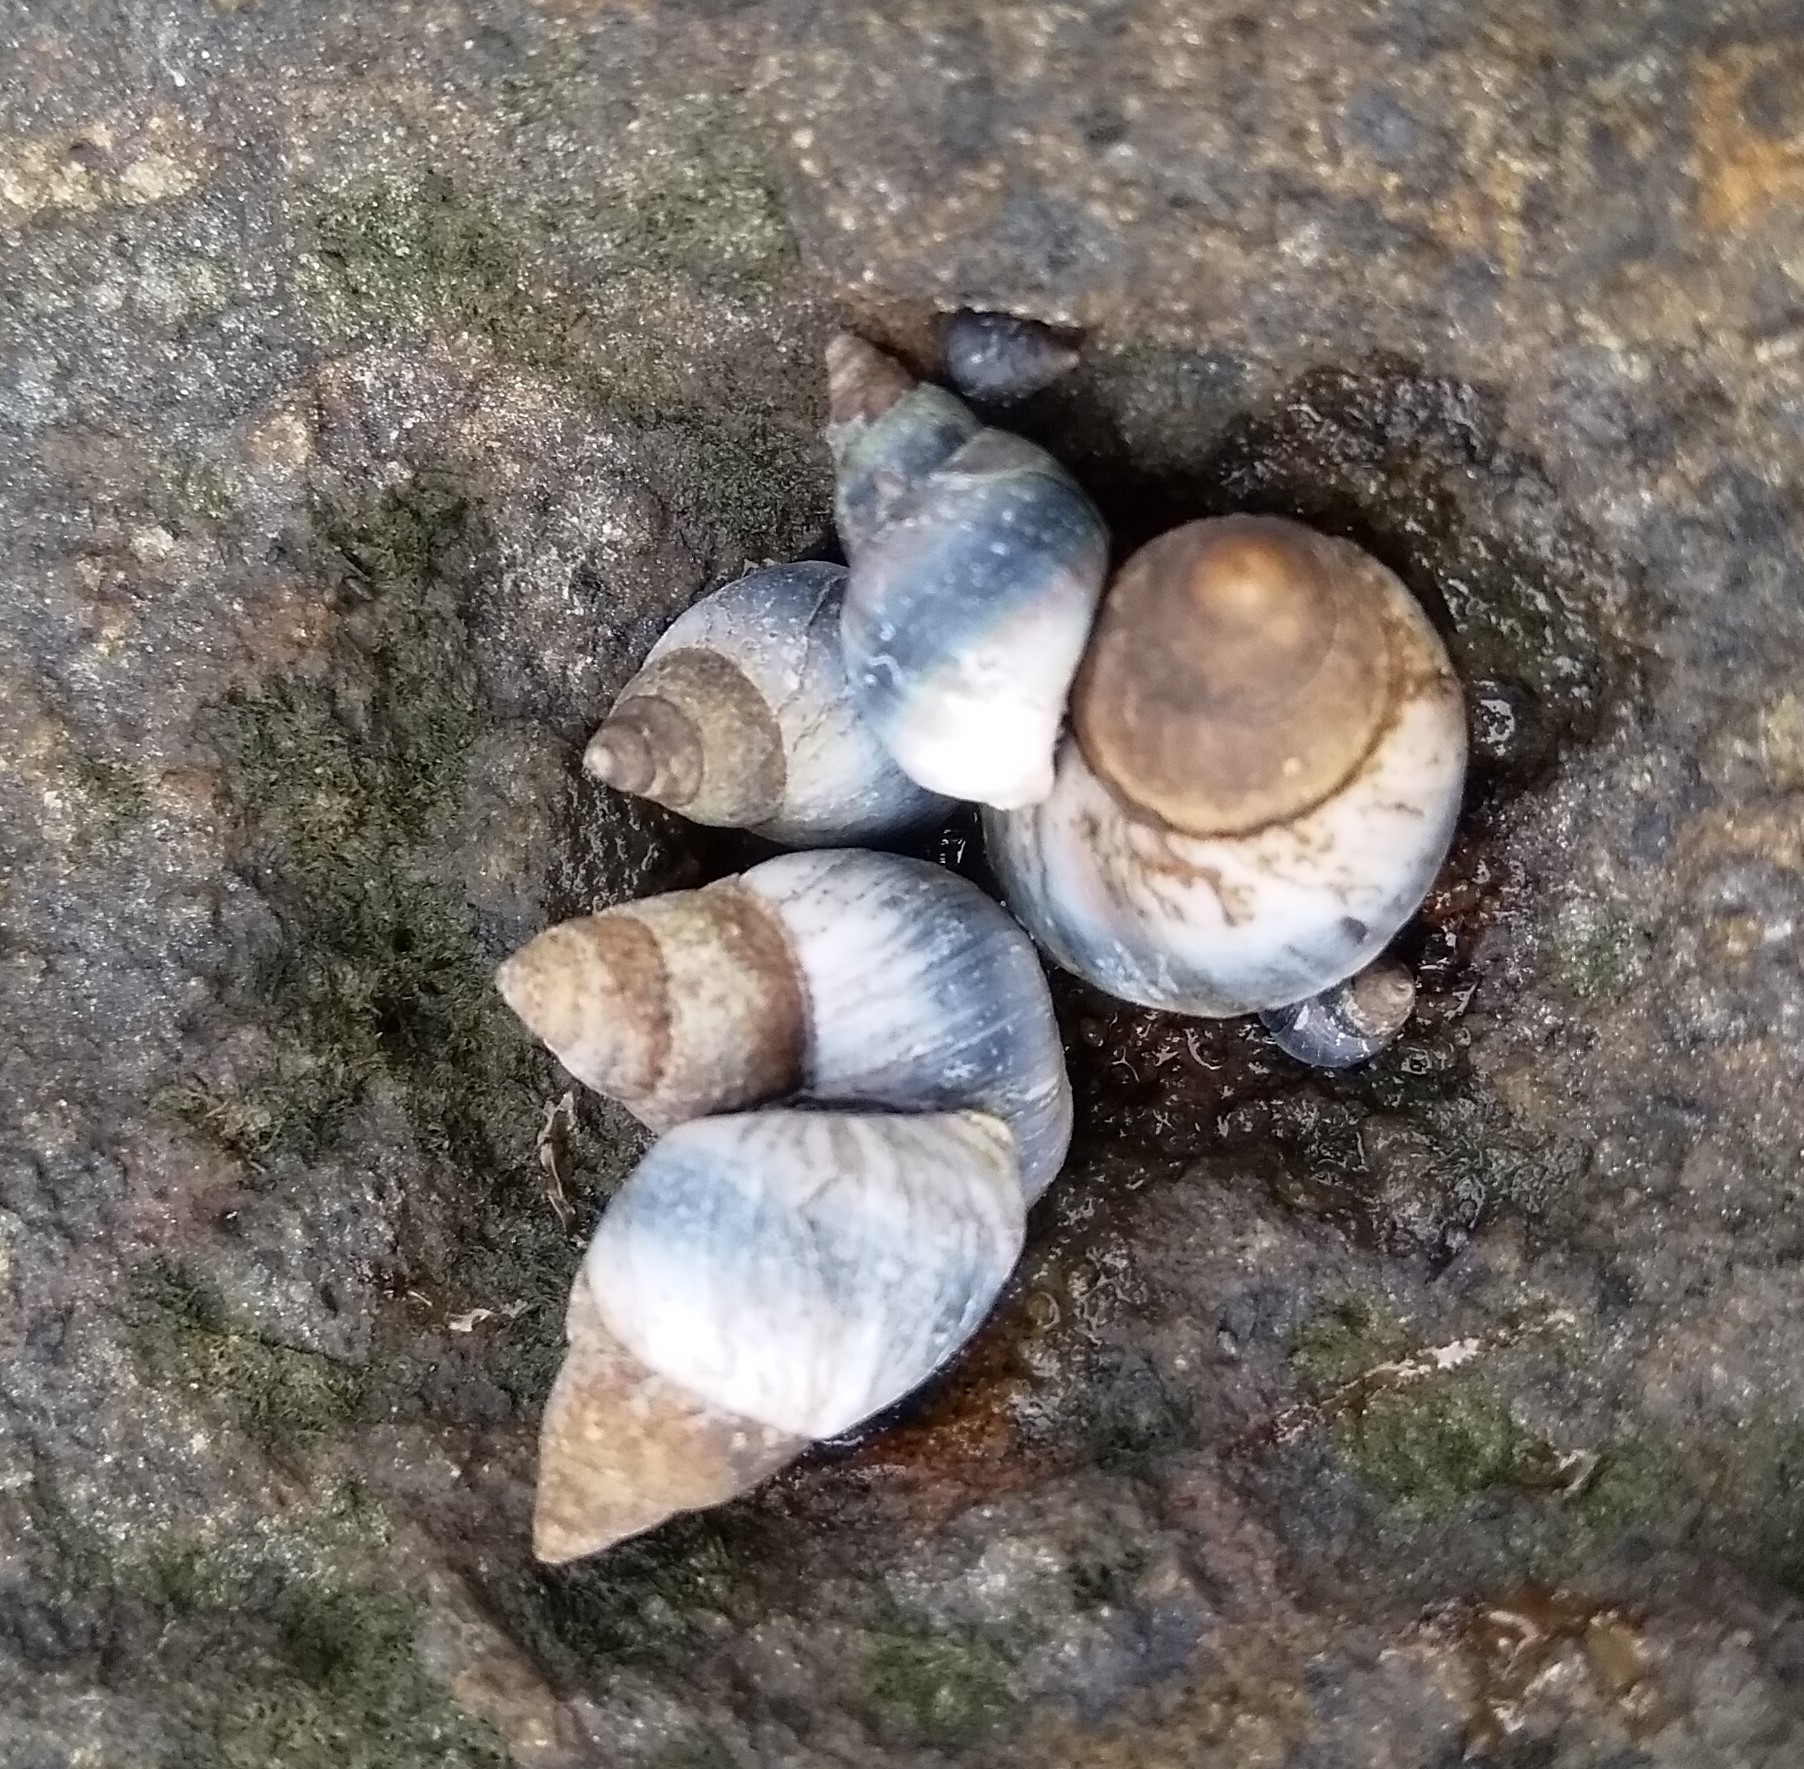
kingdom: Animalia
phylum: Mollusca
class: Gastropoda
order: Littorinimorpha
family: Littorinidae
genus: Austrolittorina
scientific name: Austrolittorina antipodum
